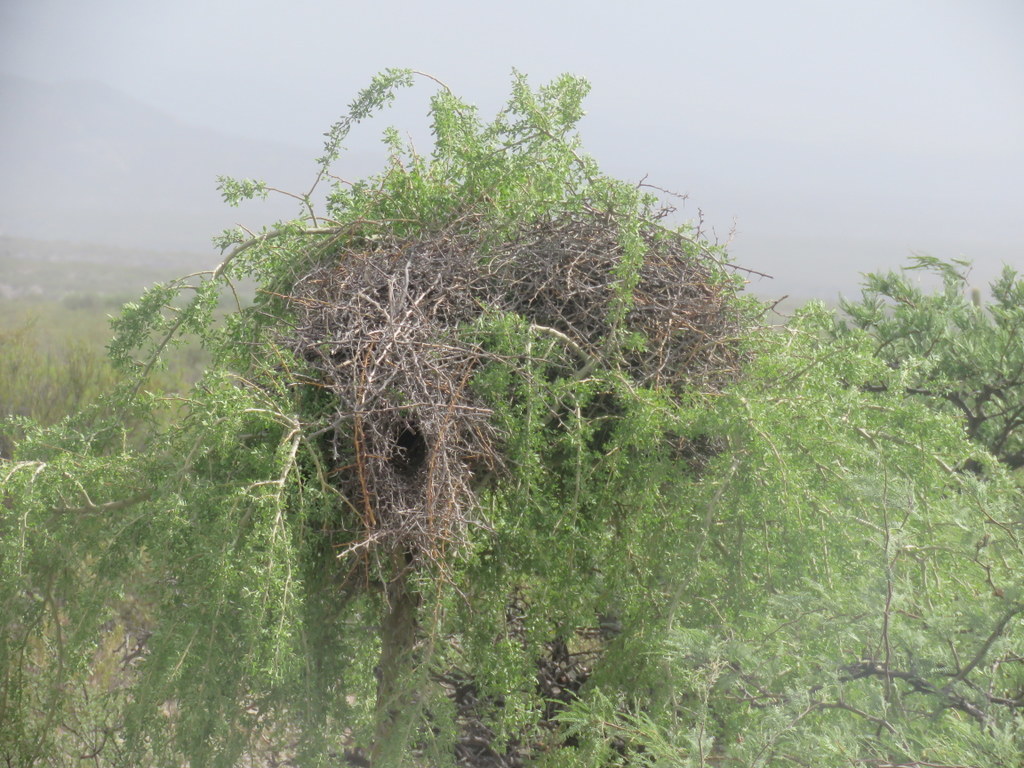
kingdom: Animalia
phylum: Chordata
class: Aves
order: Passeriformes
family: Furnariidae
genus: Pseudoseisura
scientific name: Pseudoseisura gutturalis
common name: White-throated cacholote
